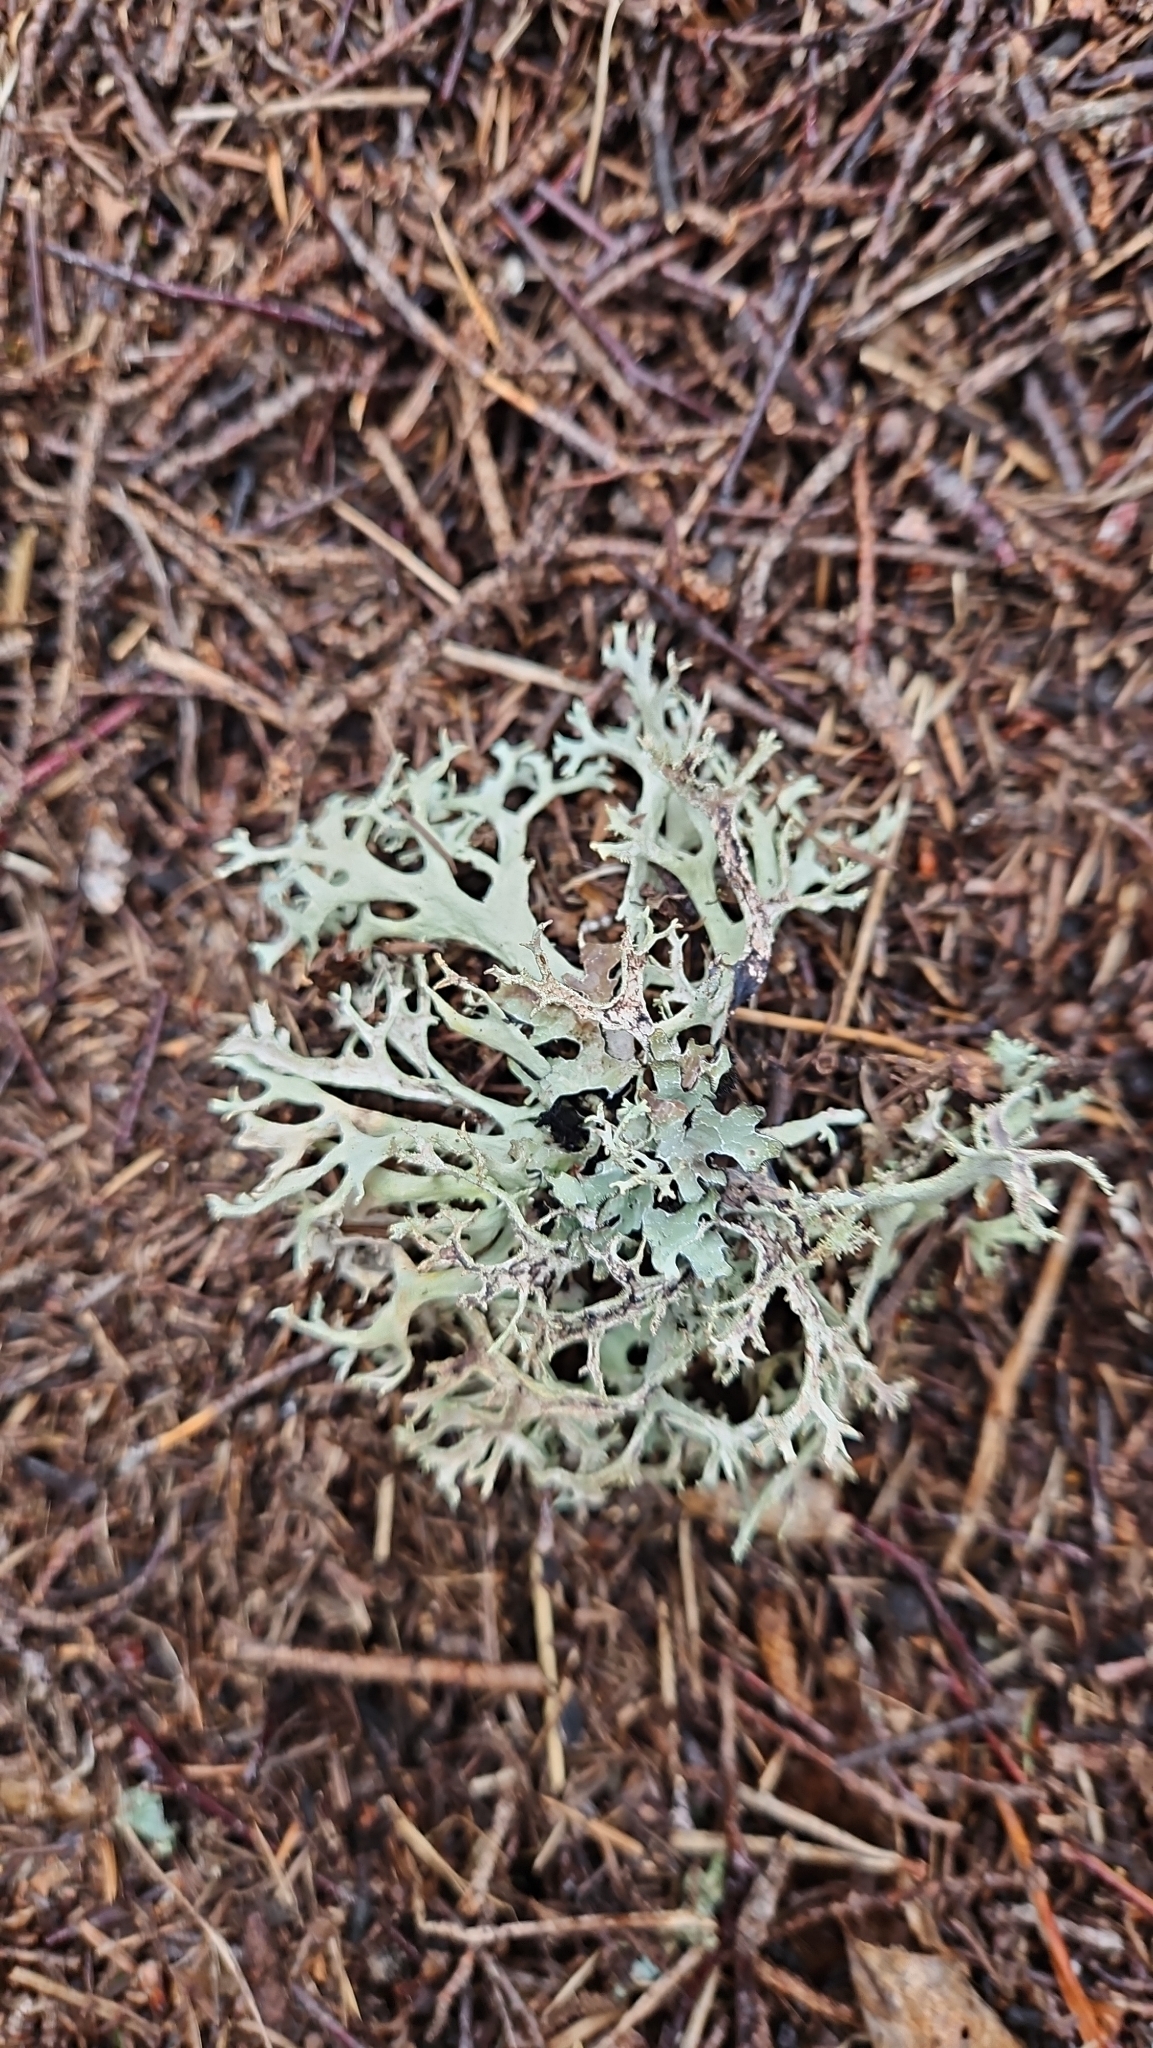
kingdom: Fungi
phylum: Ascomycota
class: Lecanoromycetes
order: Lecanorales
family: Parmeliaceae
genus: Pseudevernia
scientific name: Pseudevernia furfuracea
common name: Tree moss
